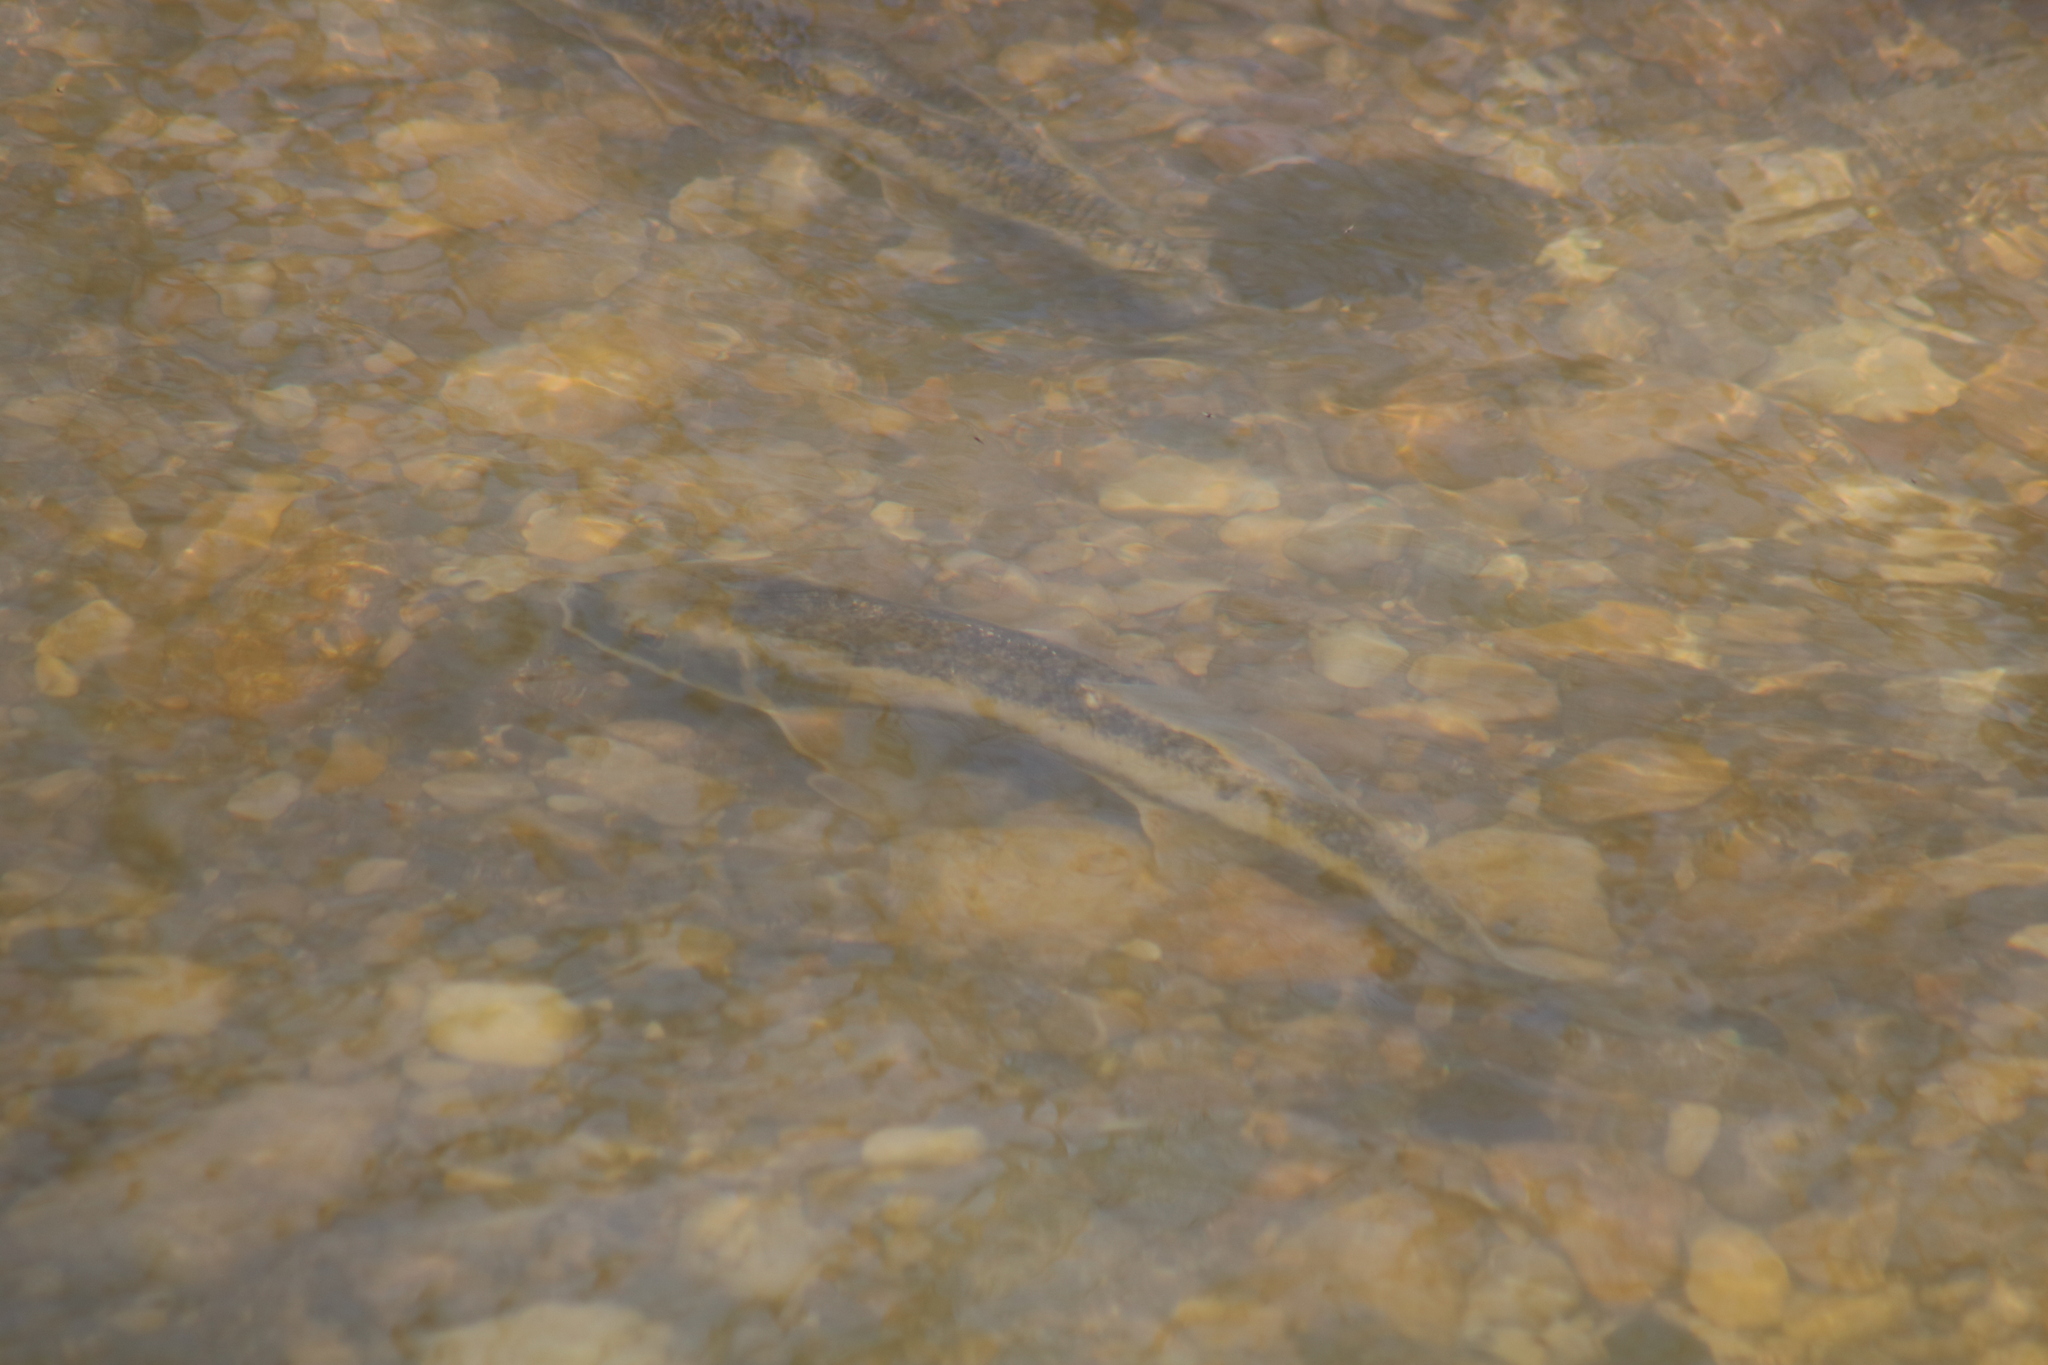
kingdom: Animalia
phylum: Chordata
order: Cypriniformes
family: Catostomidae
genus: Catostomus
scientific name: Catostomus commersonii
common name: White sucker
